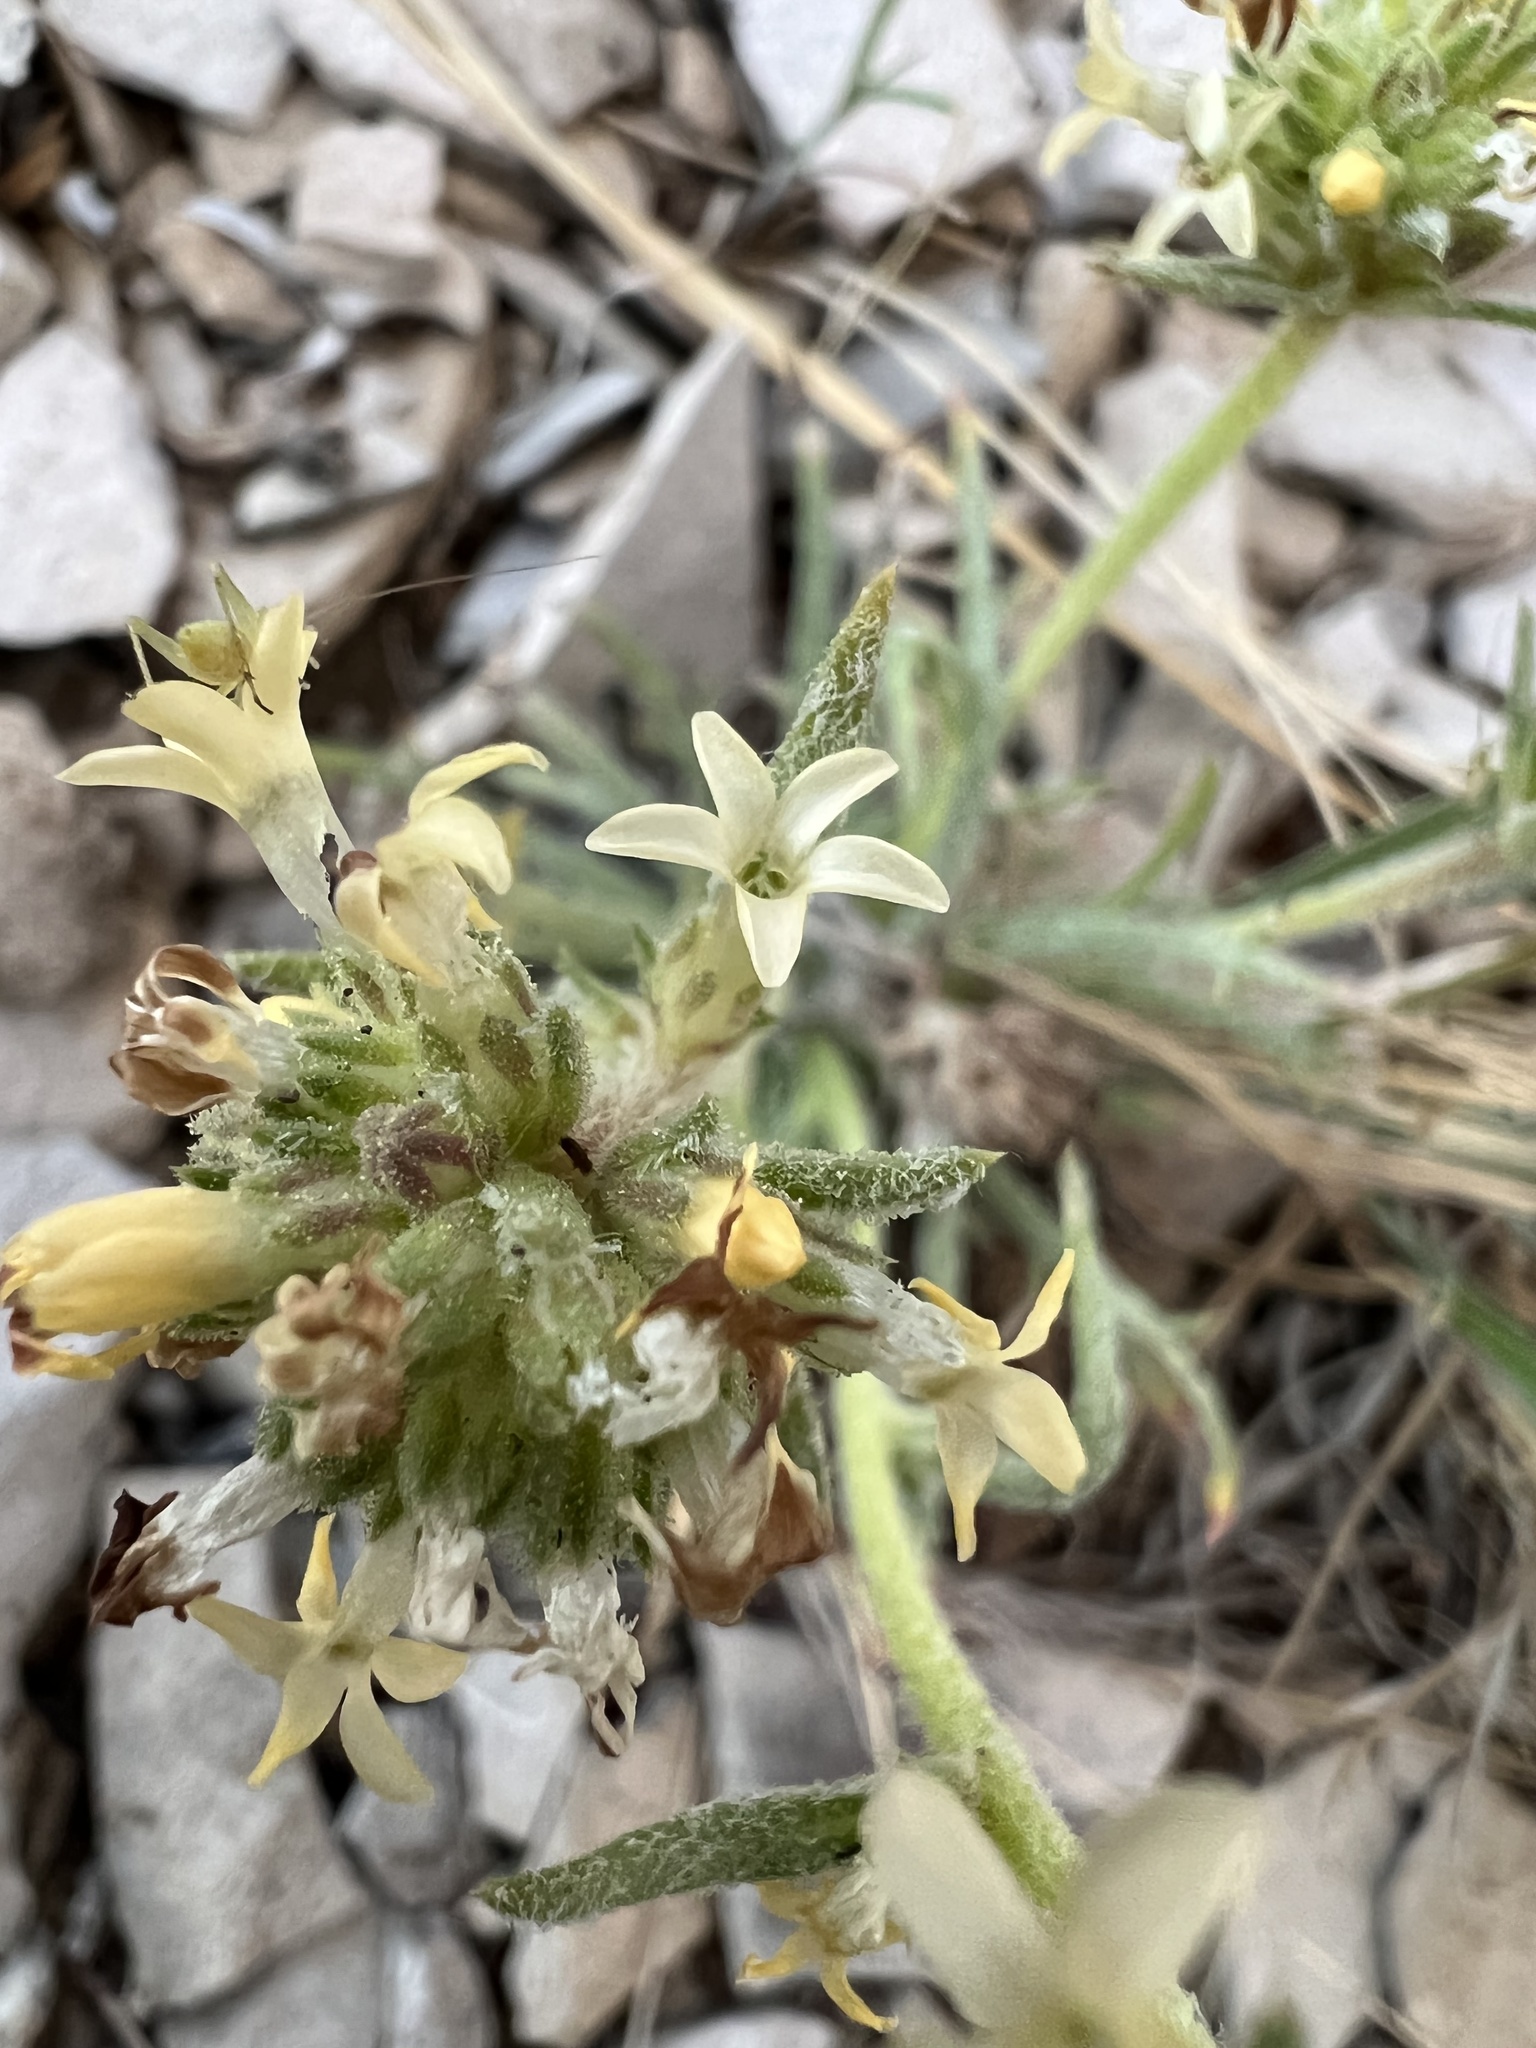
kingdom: Plantae
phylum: Tracheophyta
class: Magnoliopsida
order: Ericales
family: Polemoniaceae
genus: Ipomopsis
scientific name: Ipomopsis spicata
